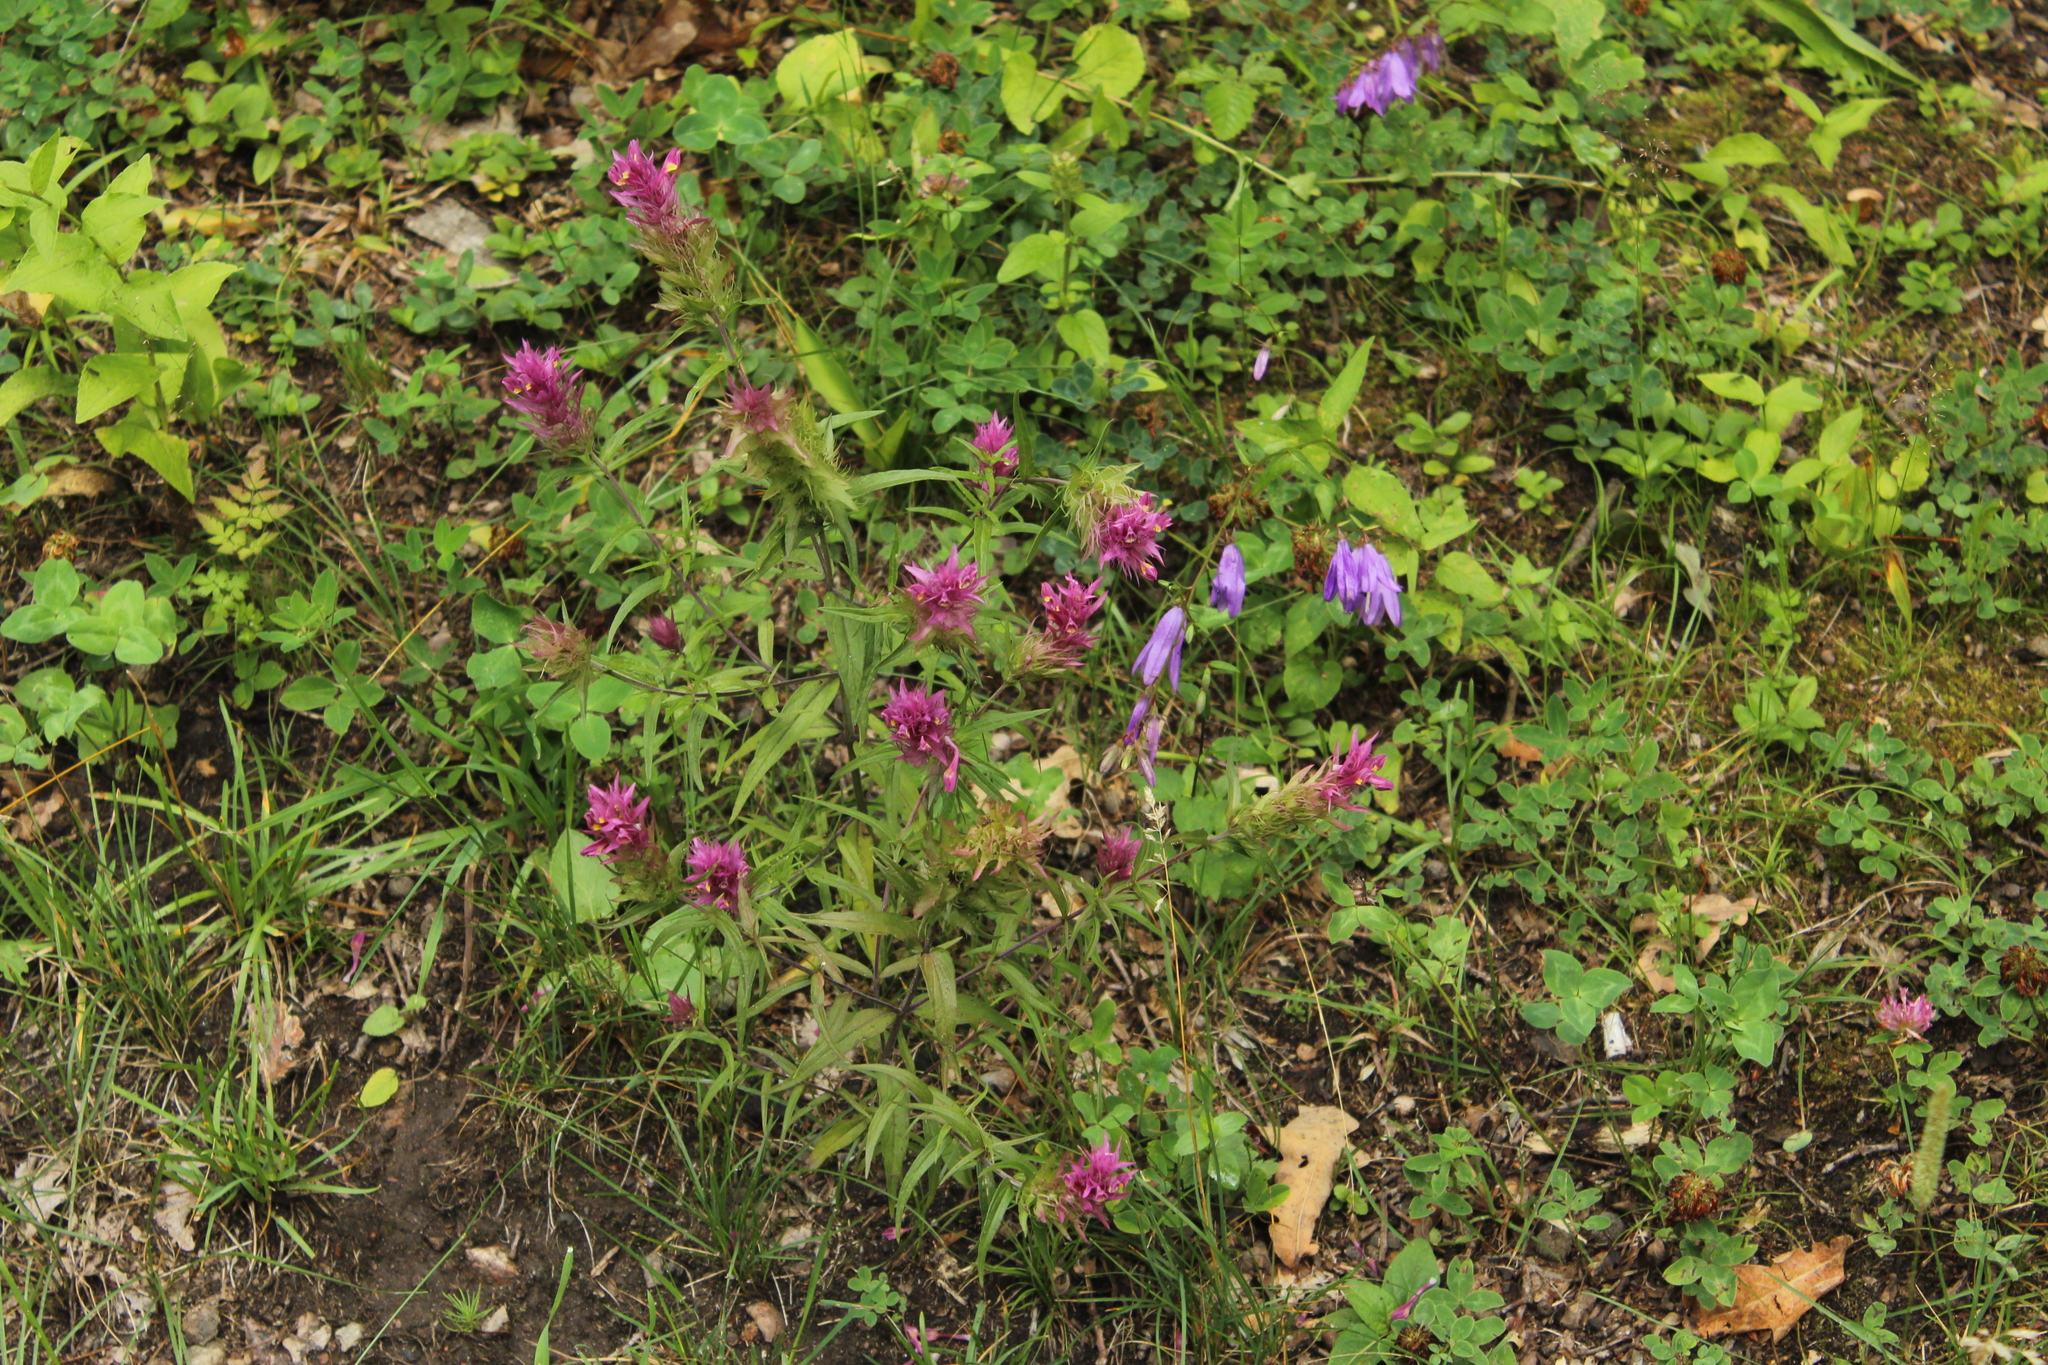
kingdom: Plantae
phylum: Tracheophyta
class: Magnoliopsida
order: Lamiales
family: Orobanchaceae
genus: Melampyrum
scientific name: Melampyrum arvense
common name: Field cow-wheat
